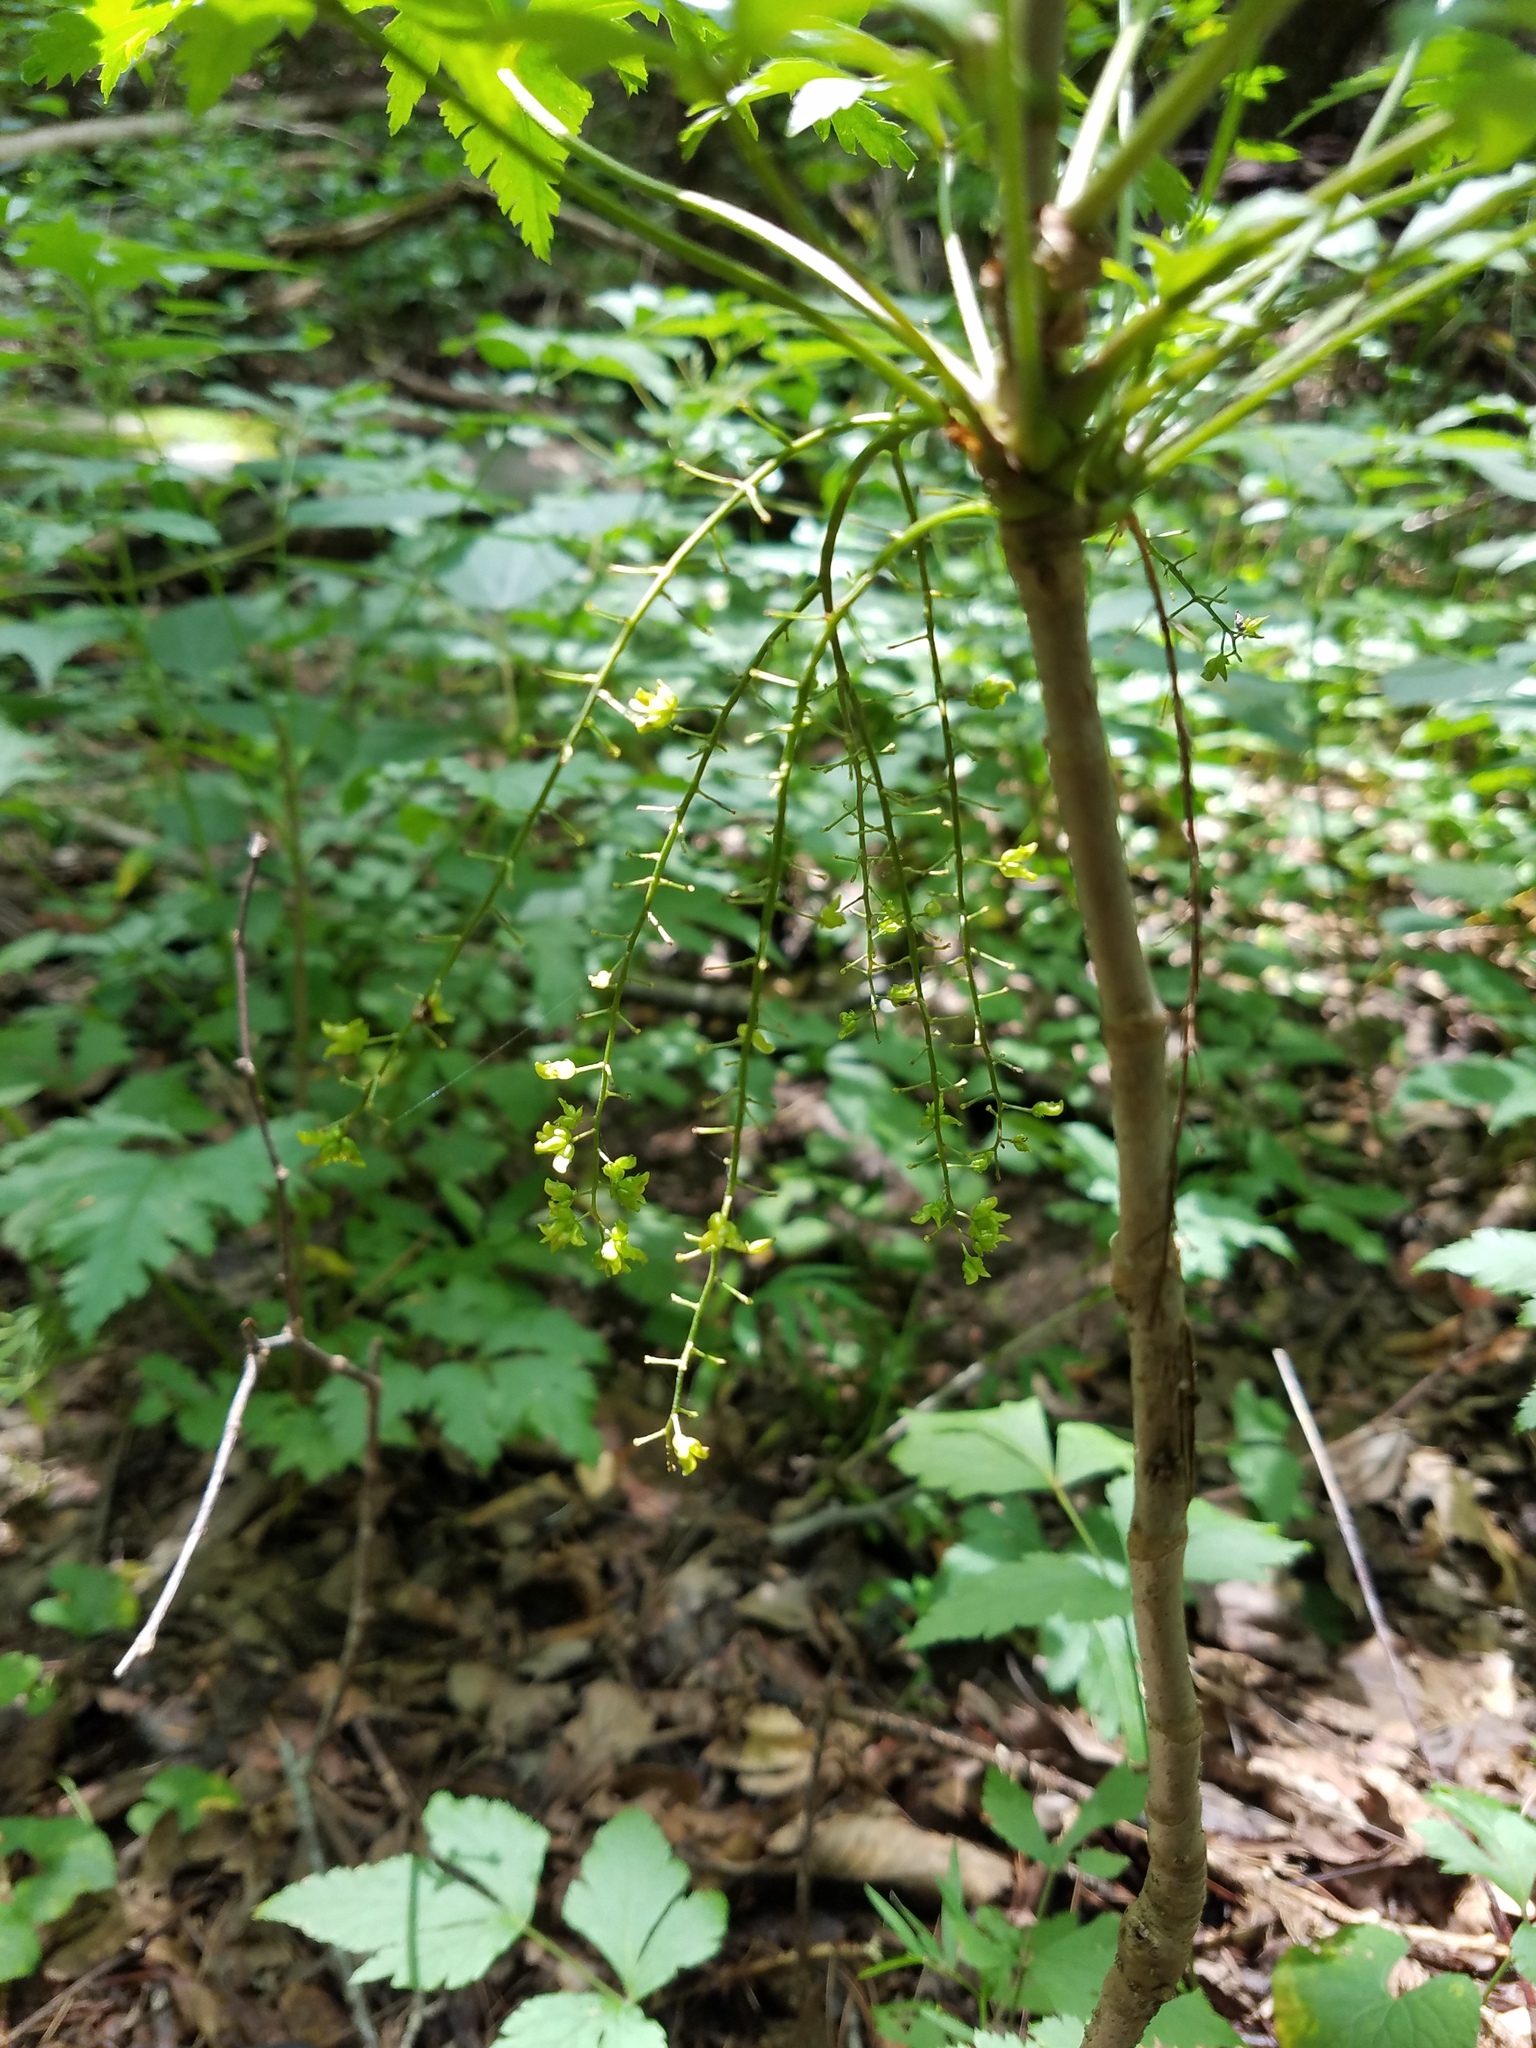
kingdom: Plantae
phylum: Tracheophyta
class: Magnoliopsida
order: Ranunculales
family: Ranunculaceae
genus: Xanthorhiza
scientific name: Xanthorhiza simplicissima
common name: Yellowroot
